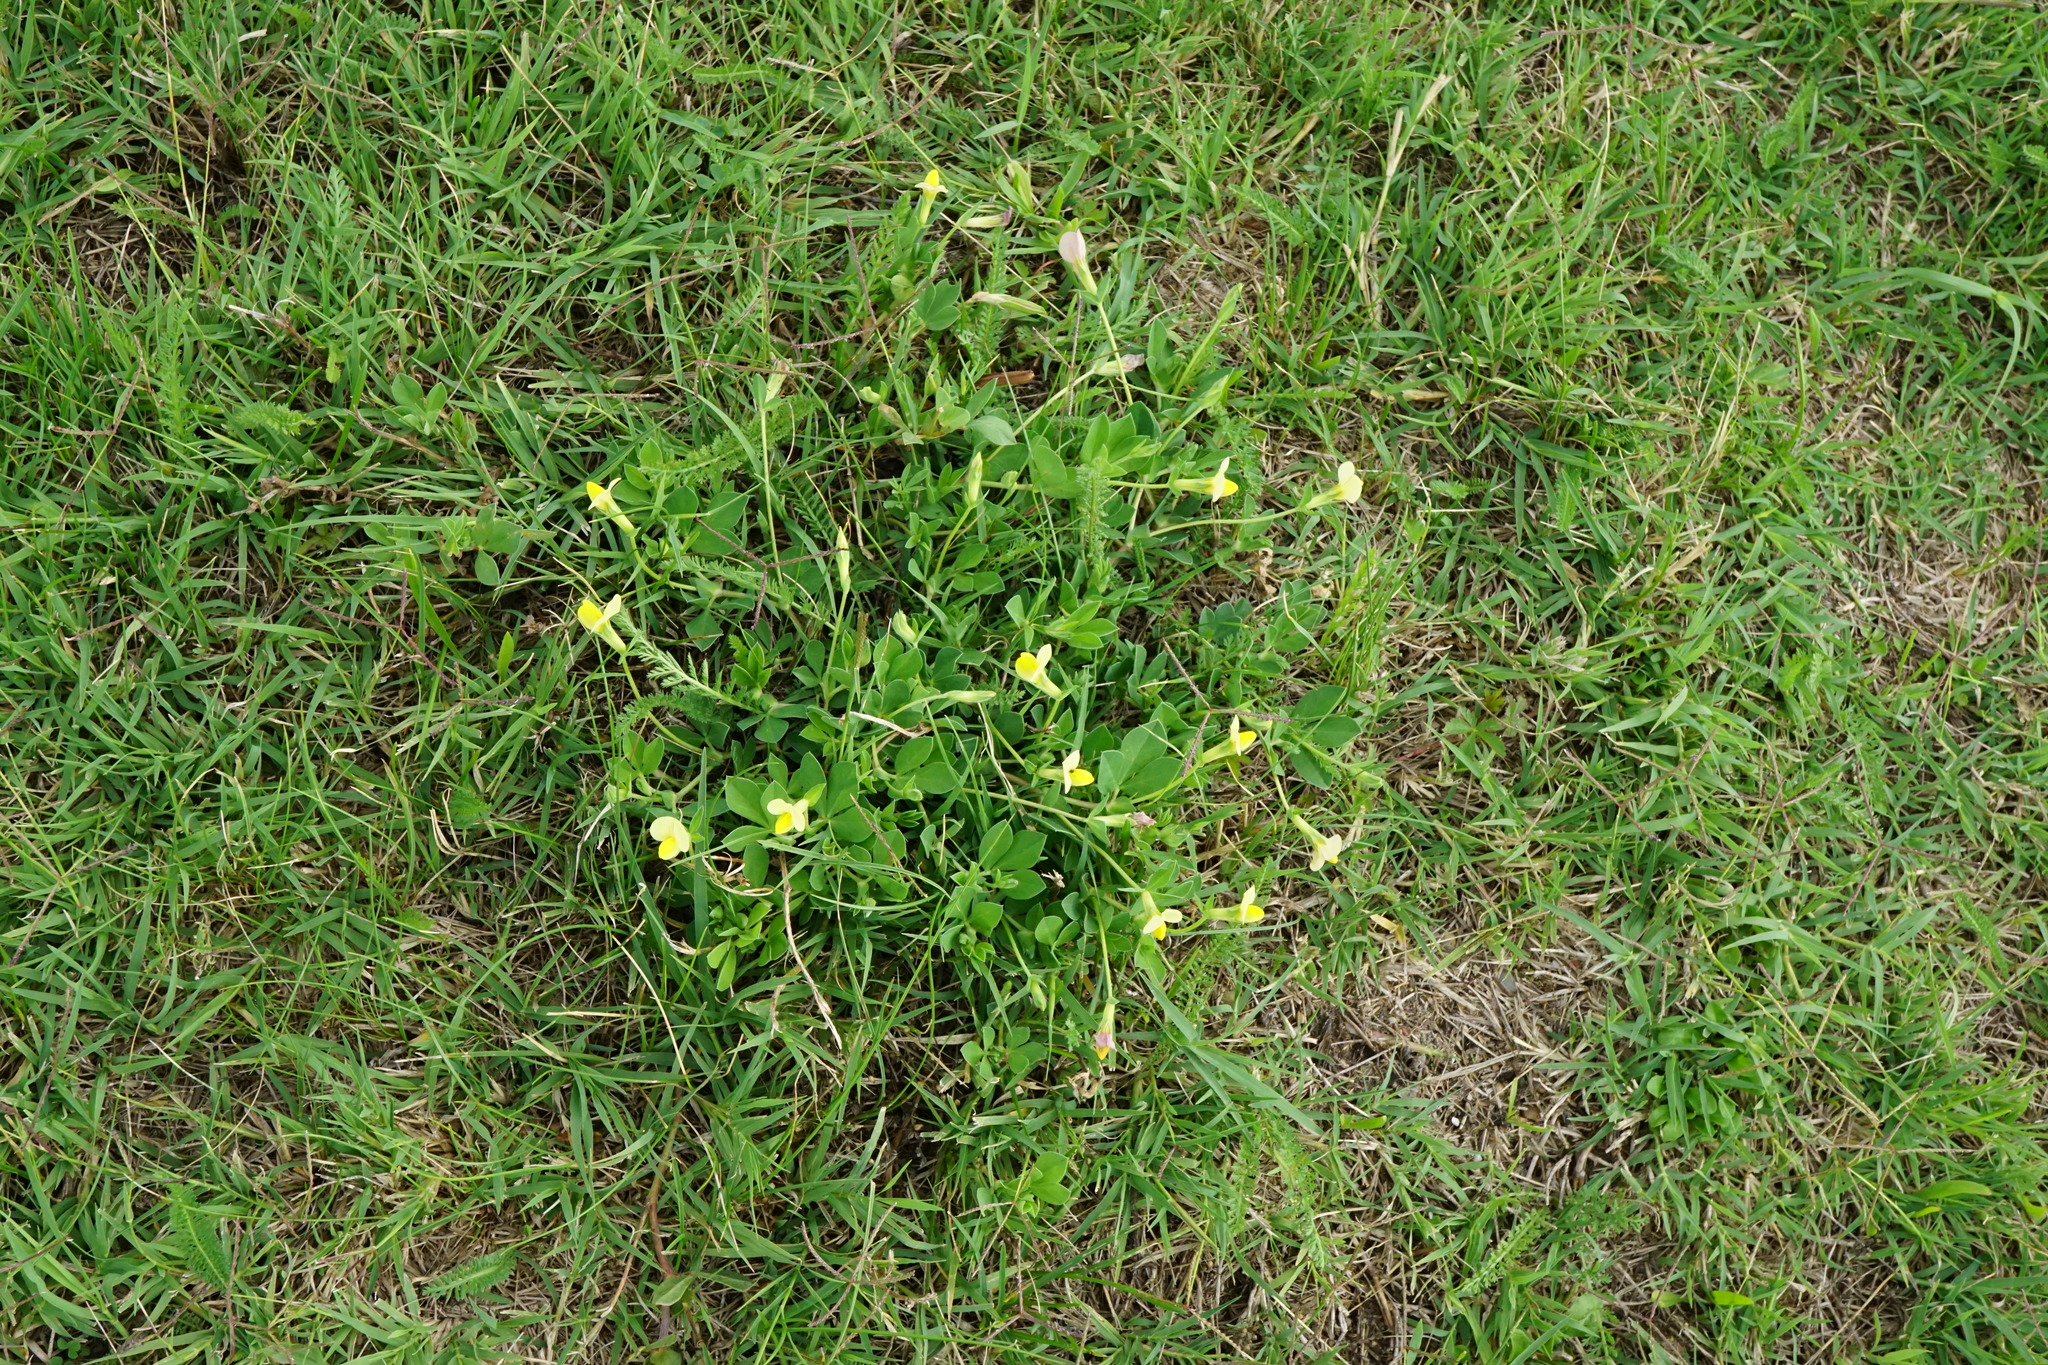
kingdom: Plantae
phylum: Tracheophyta
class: Magnoliopsida
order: Fabales
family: Fabaceae
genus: Lotus
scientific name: Lotus maritimus
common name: Dragon's-teeth
